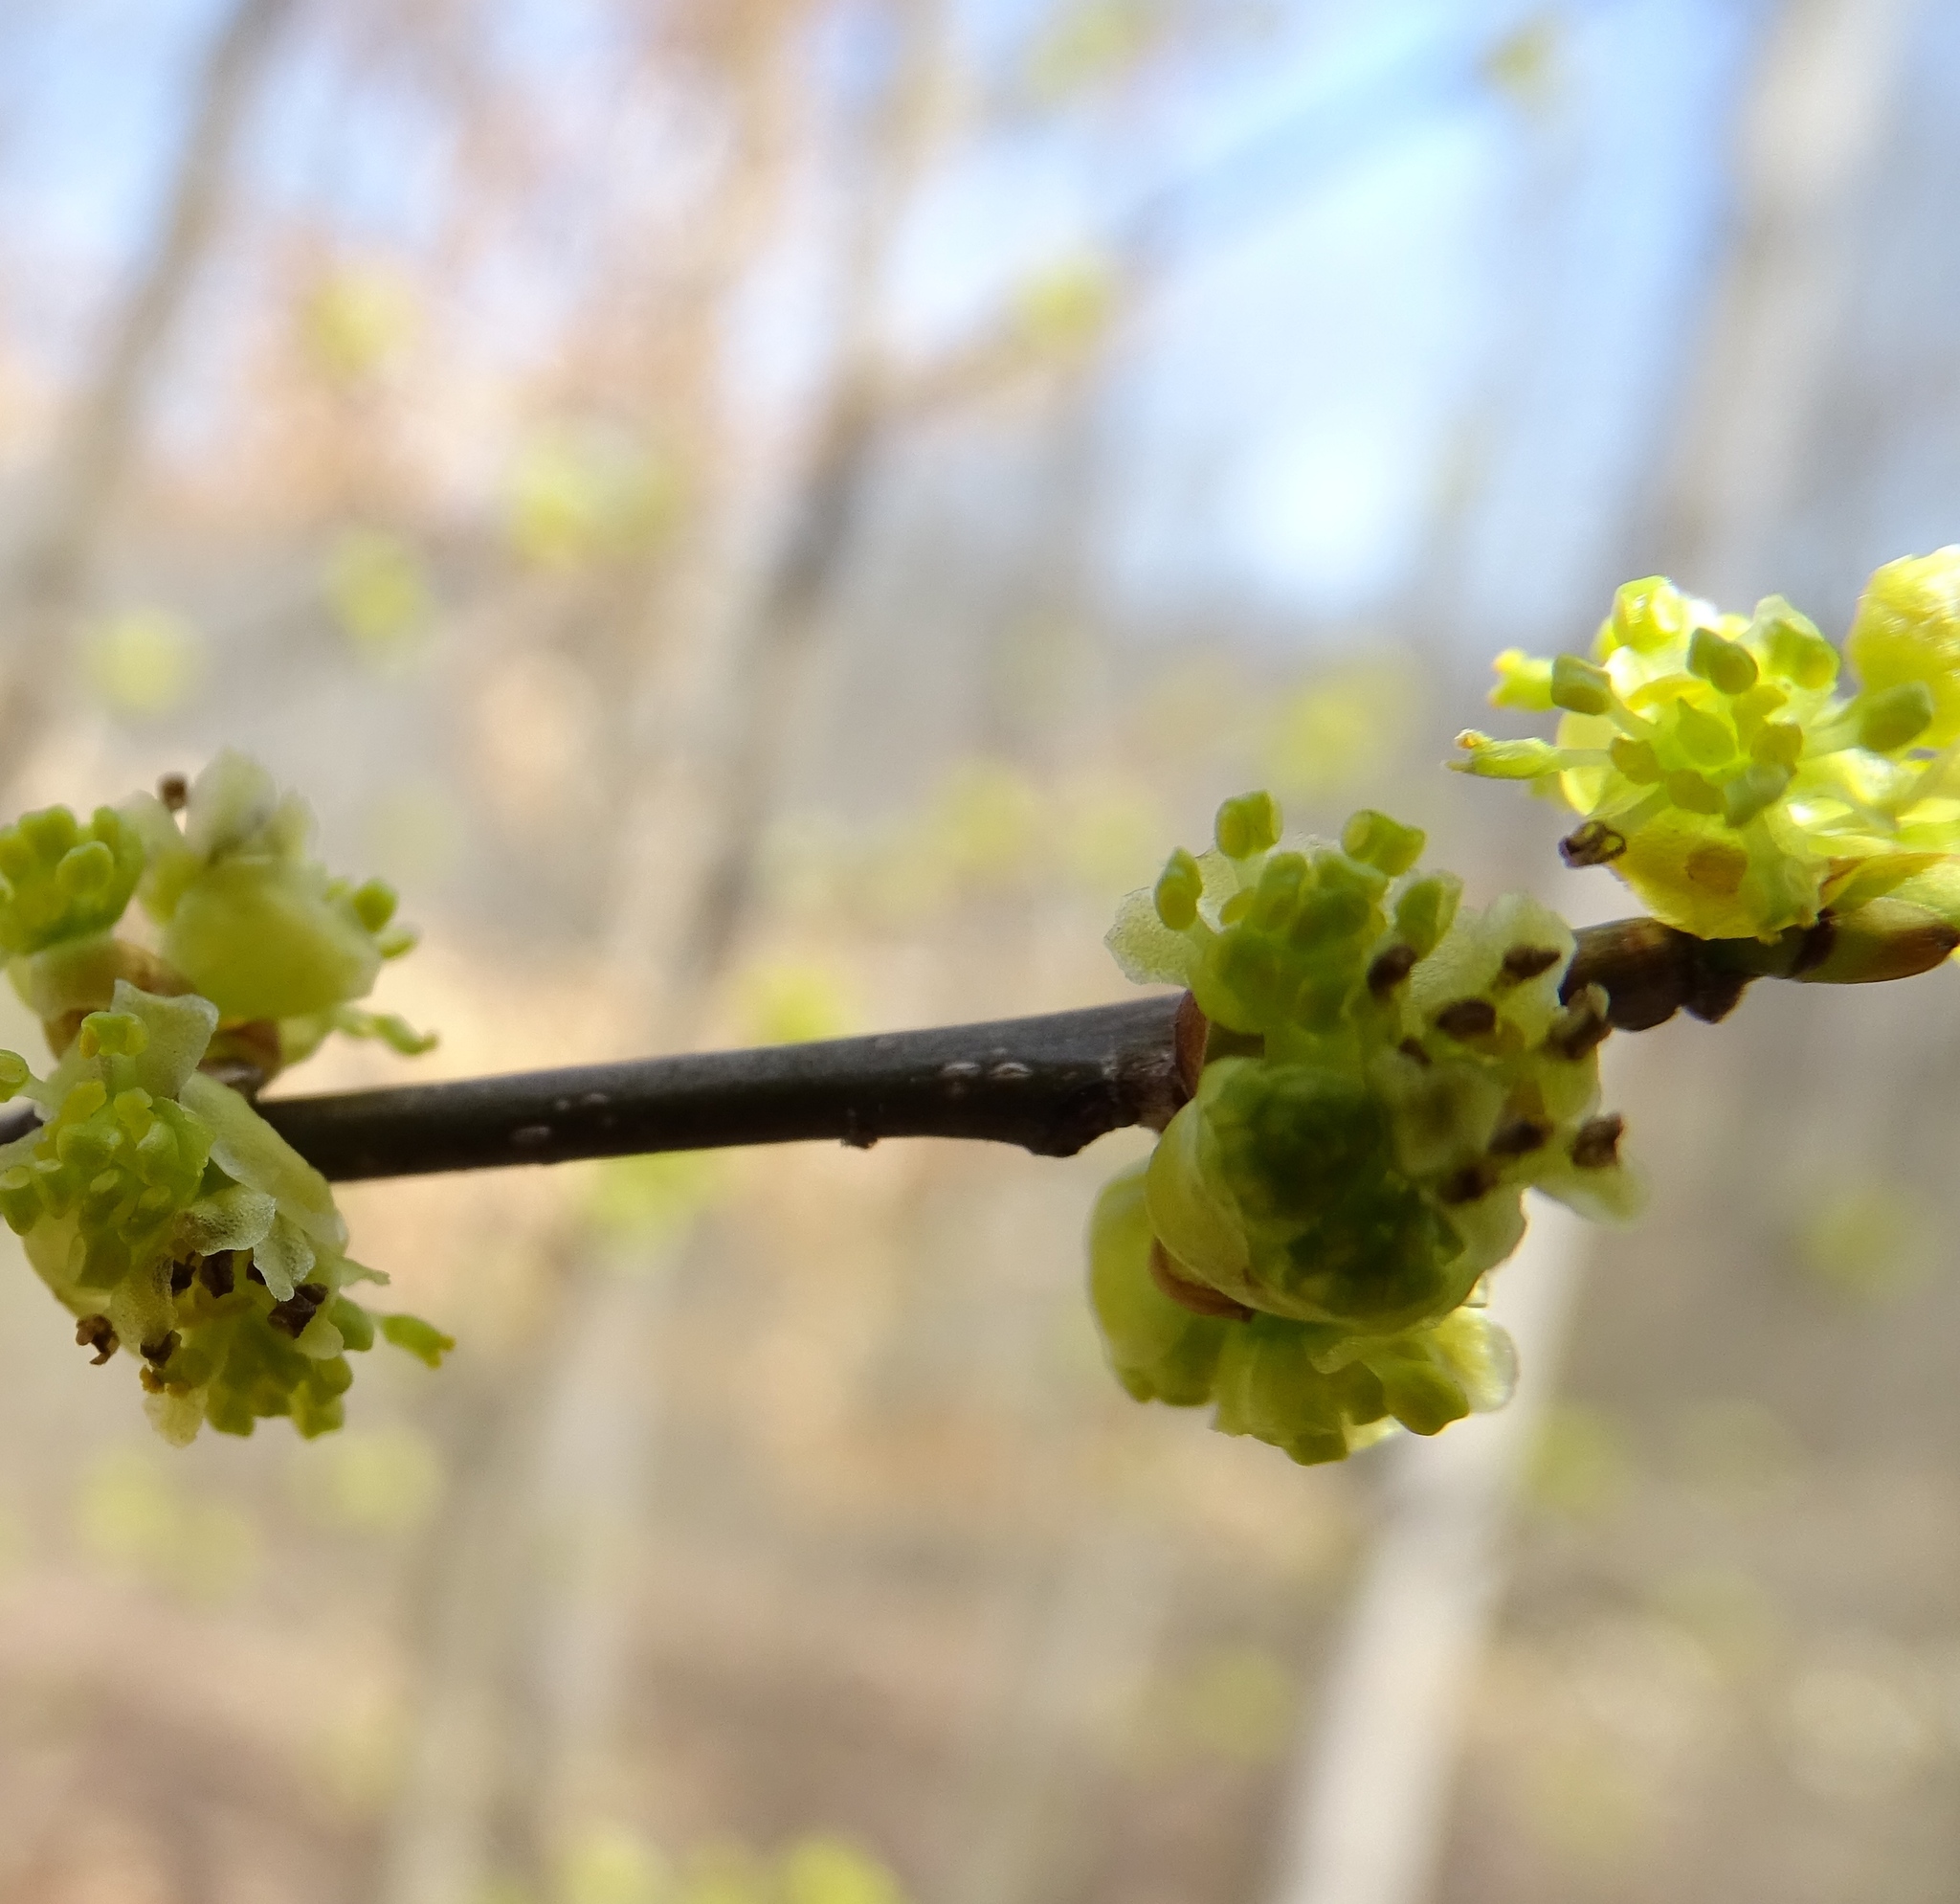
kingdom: Plantae
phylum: Tracheophyta
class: Magnoliopsida
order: Laurales
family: Lauraceae
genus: Lindera
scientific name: Lindera benzoin
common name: Spicebush
